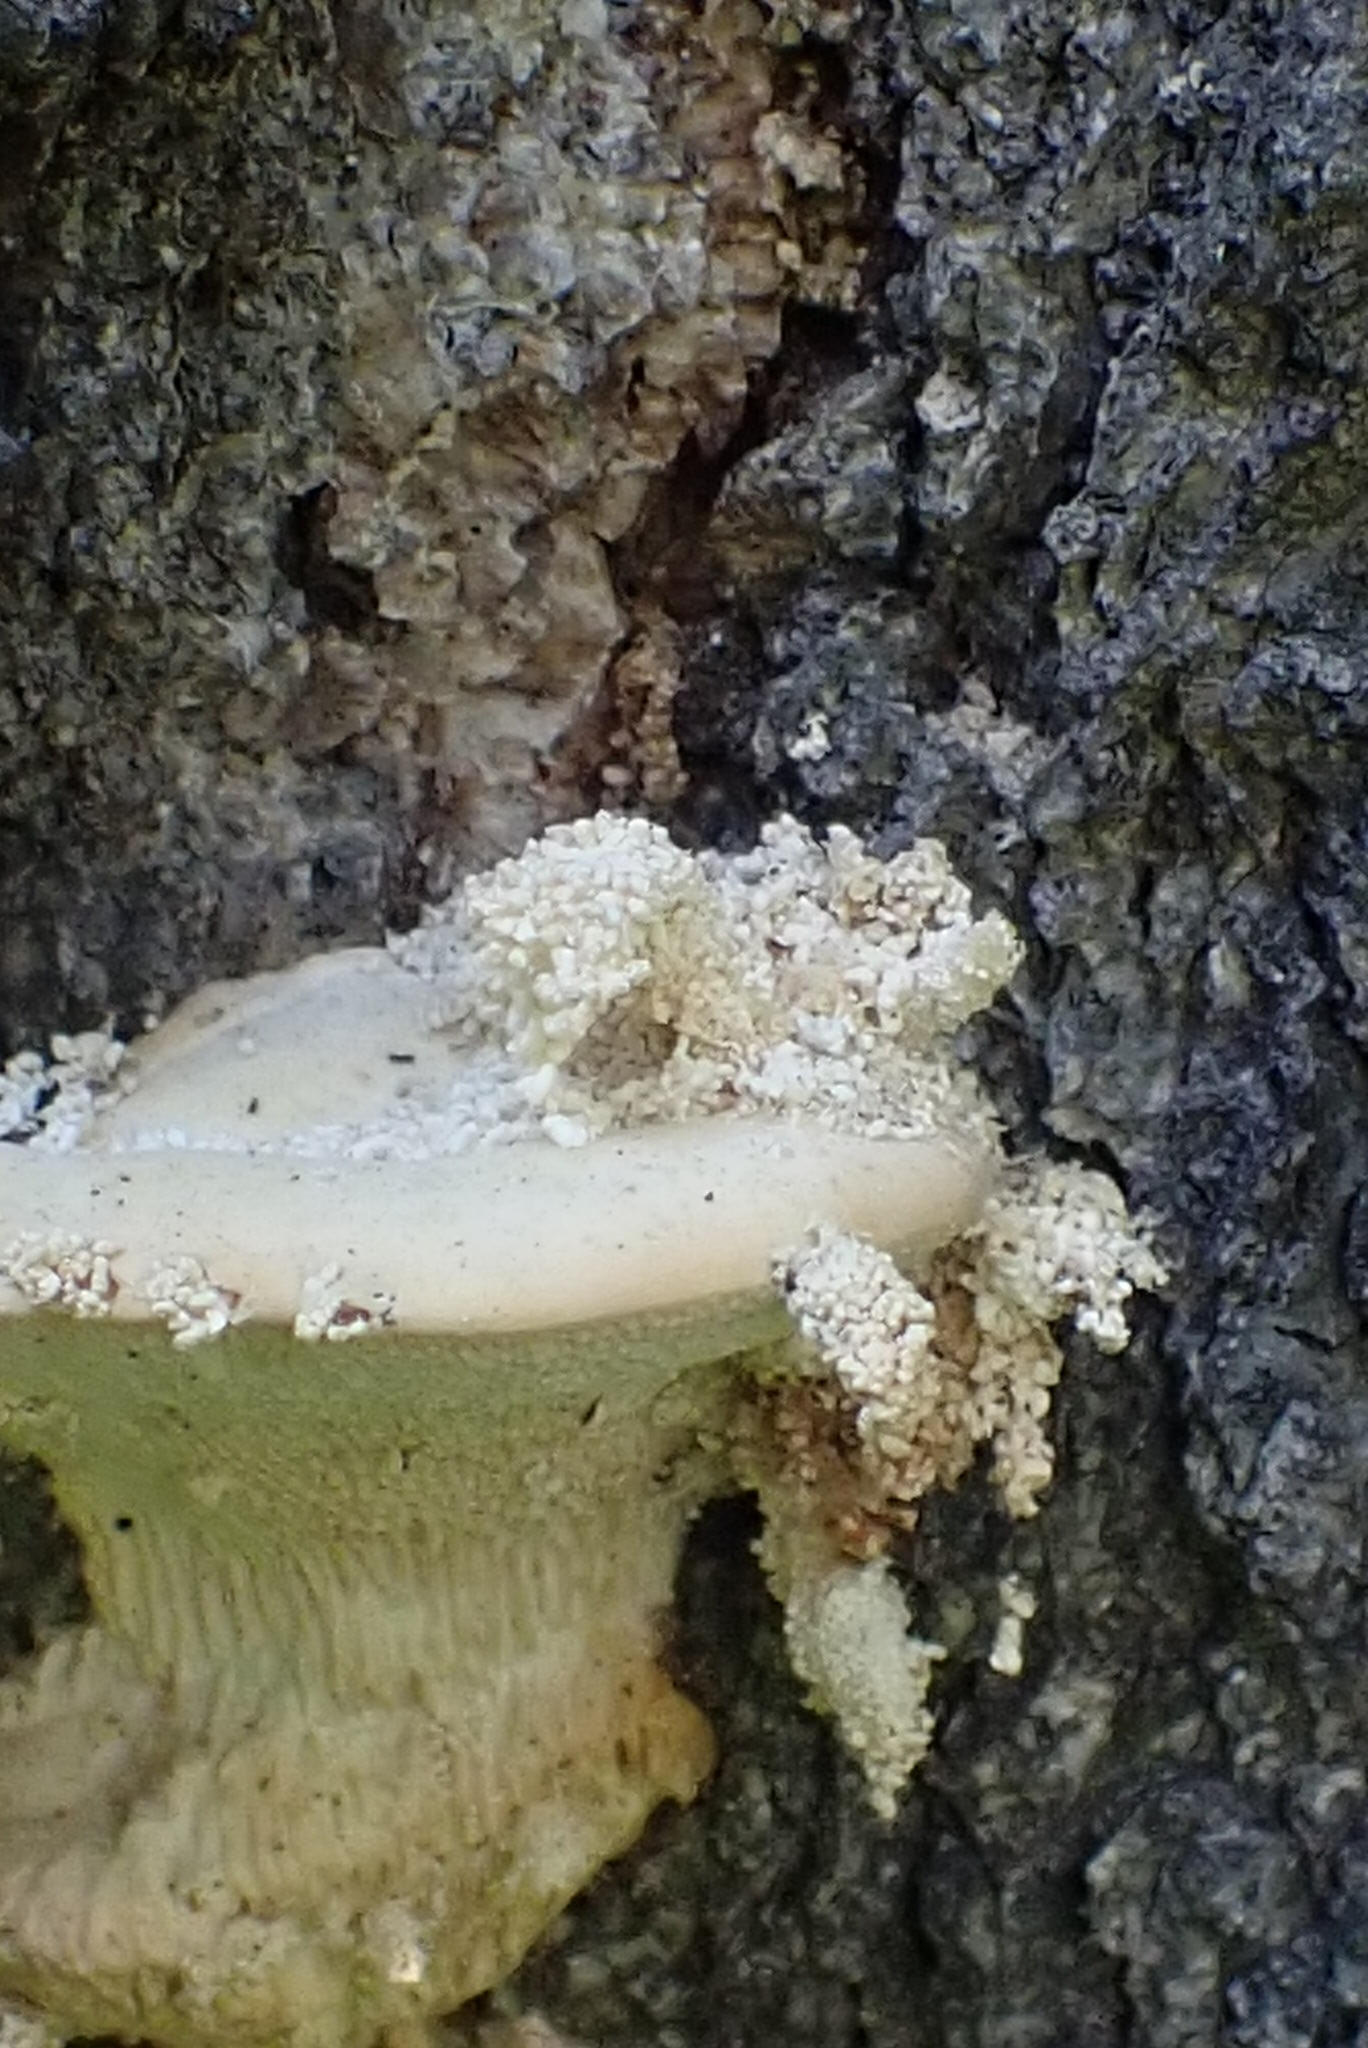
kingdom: Fungi
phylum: Basidiomycota
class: Agaricomycetes
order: Polyporales
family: Polyporaceae
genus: Trametes
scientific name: Trametes gibbosa
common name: Lumpy bracket
